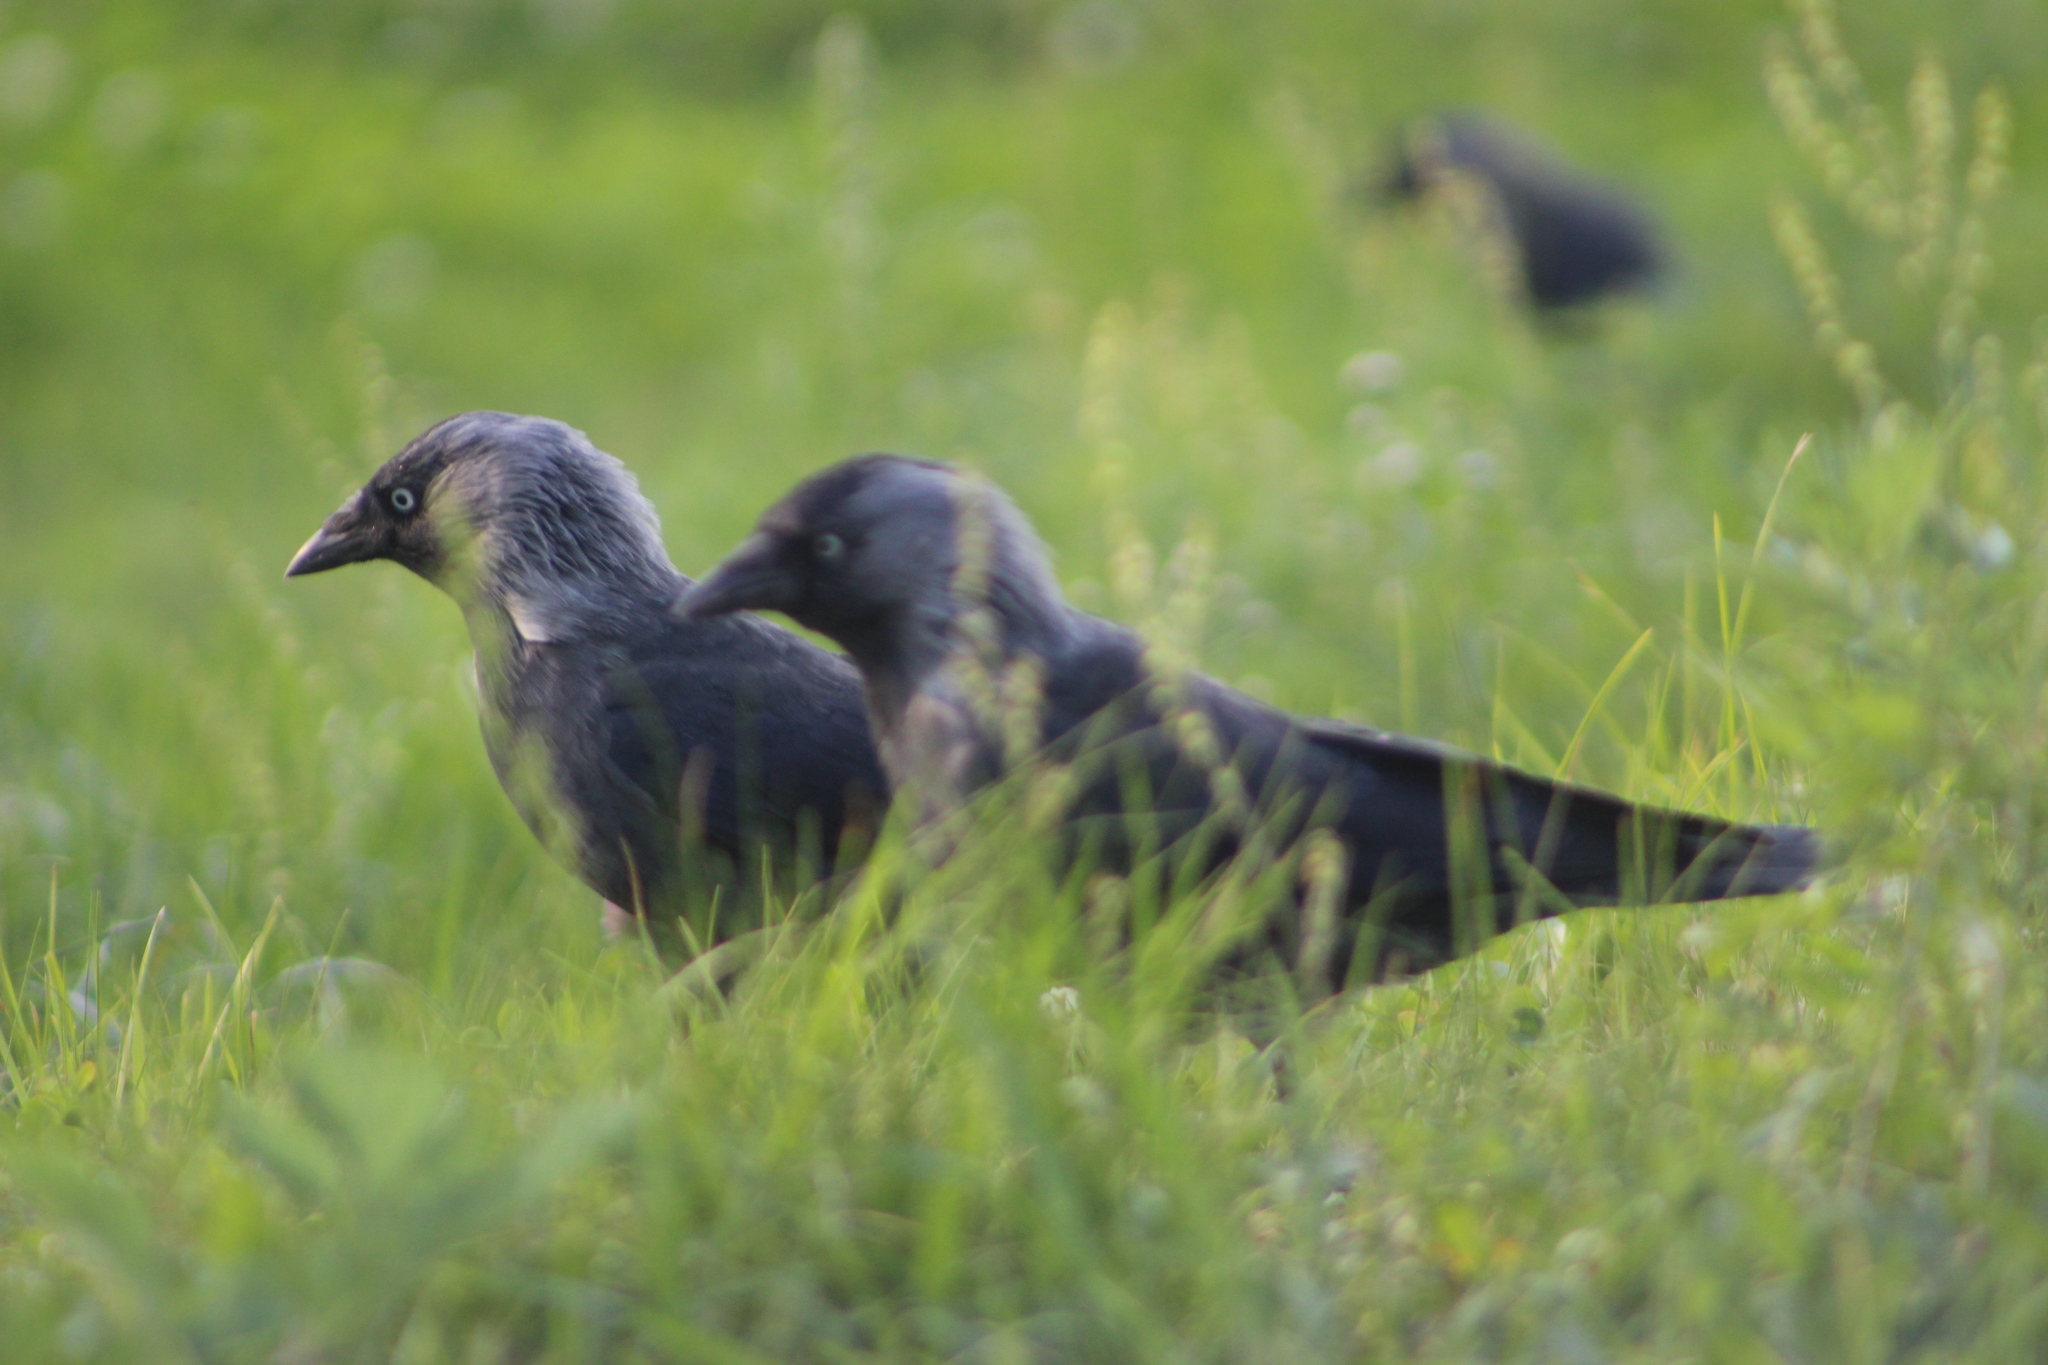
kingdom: Animalia
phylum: Chordata
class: Aves
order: Passeriformes
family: Corvidae
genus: Coloeus
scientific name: Coloeus monedula
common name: Western jackdaw
